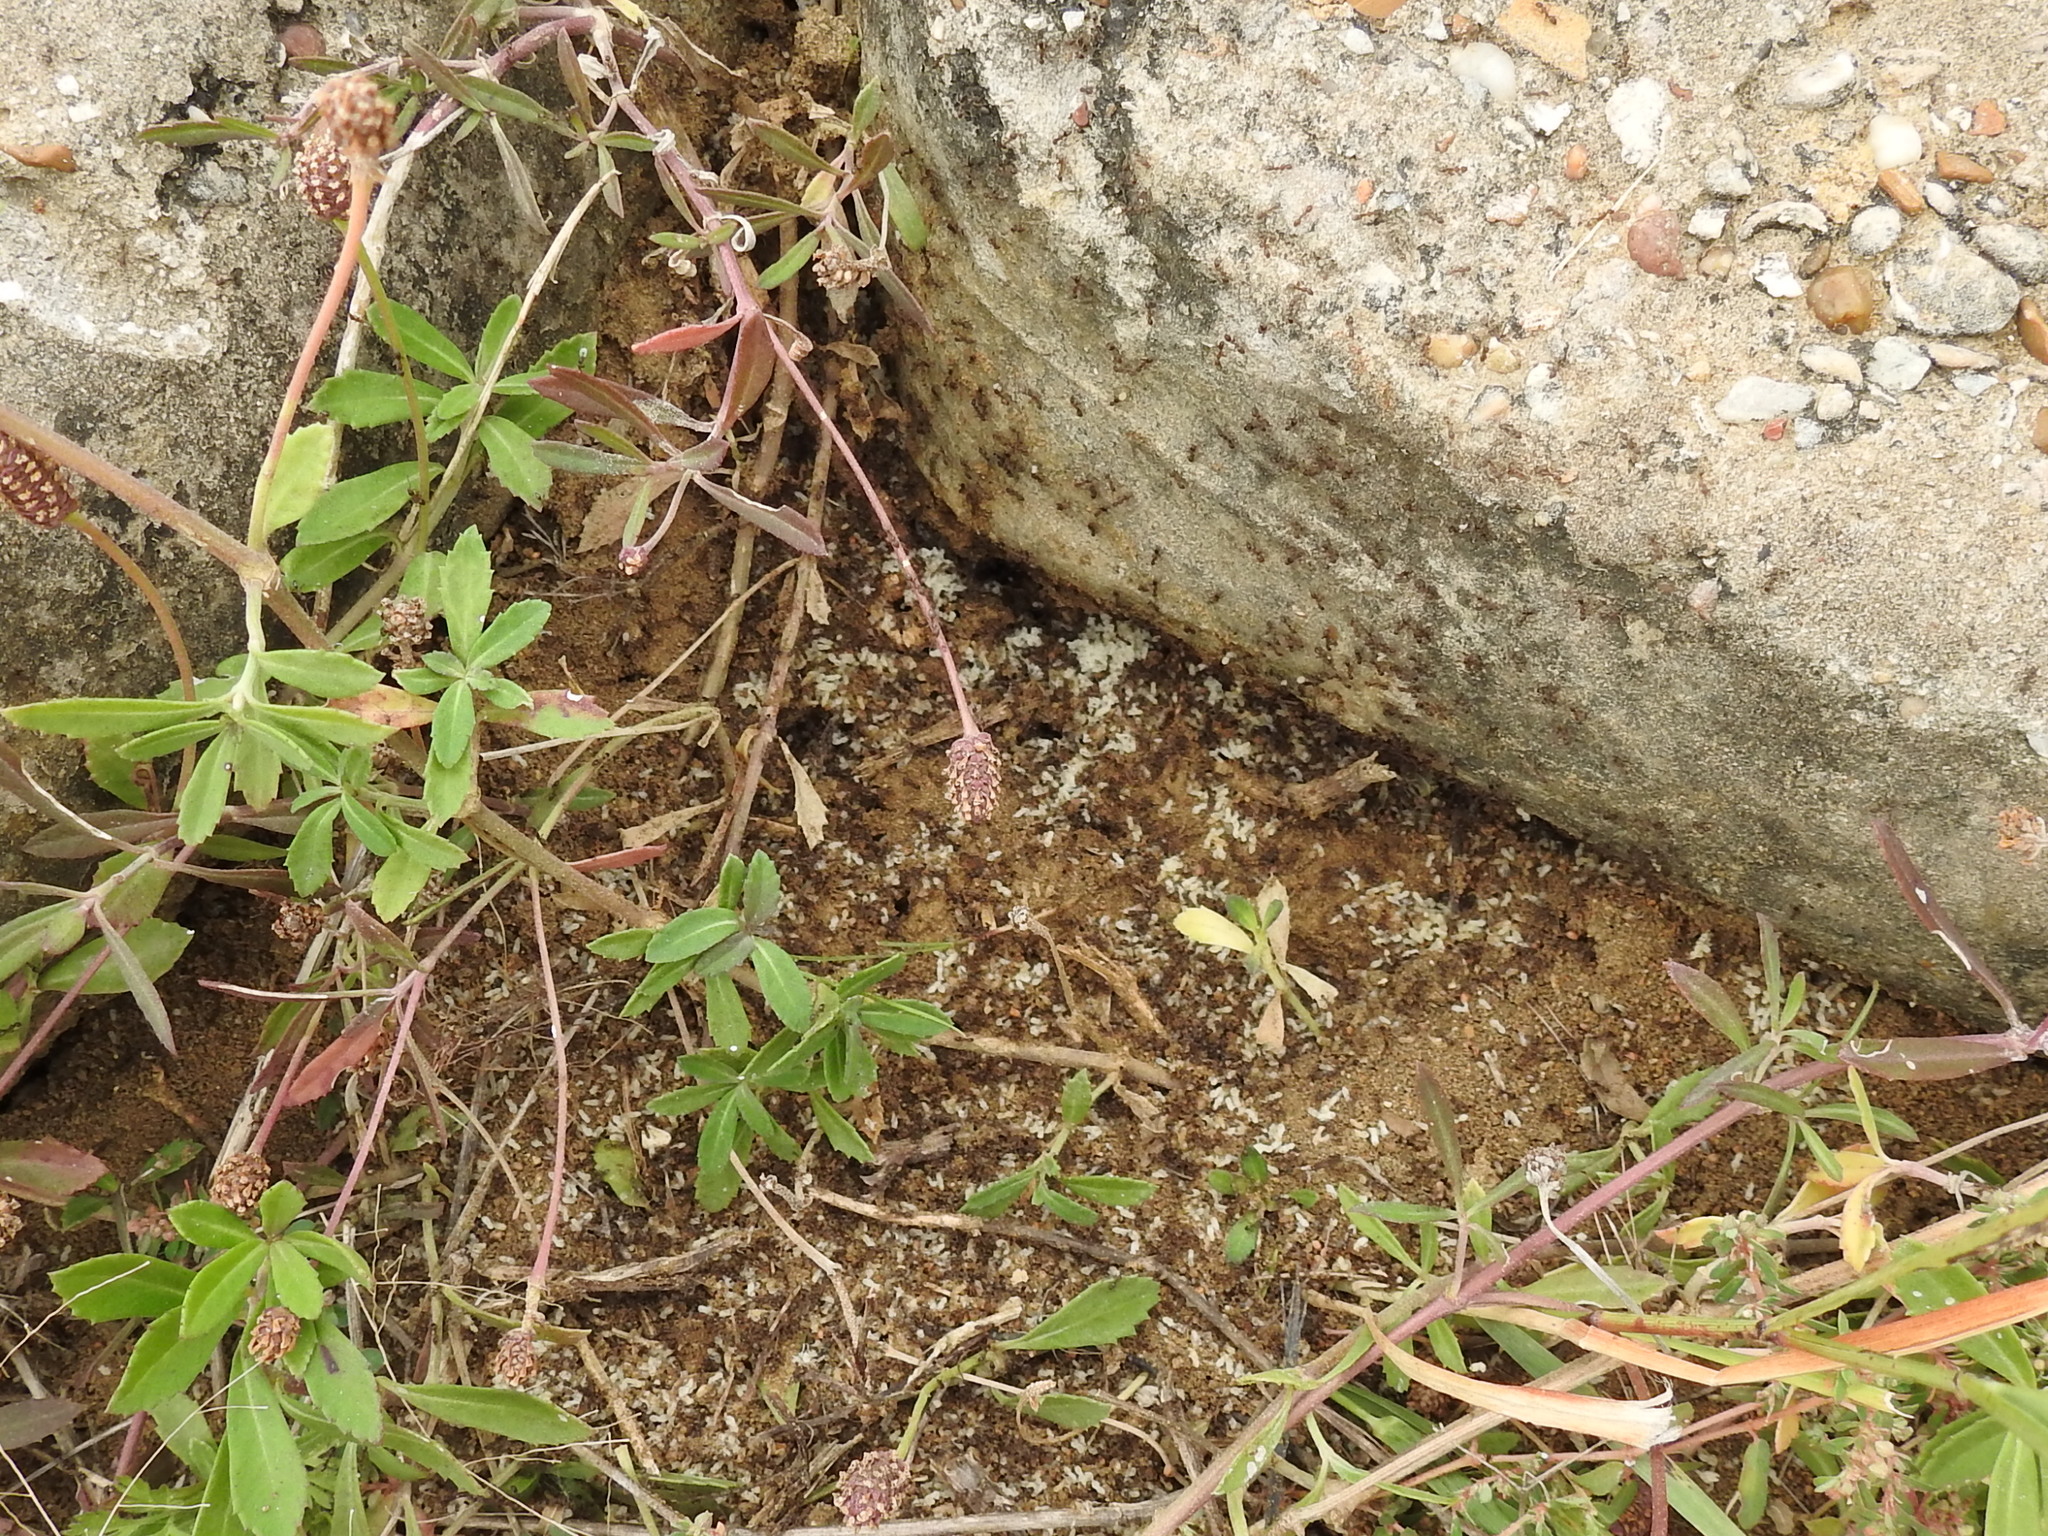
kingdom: Animalia
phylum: Arthropoda
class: Insecta
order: Hymenoptera
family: Formicidae
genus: Linepithema
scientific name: Linepithema humile
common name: Argentine ant
